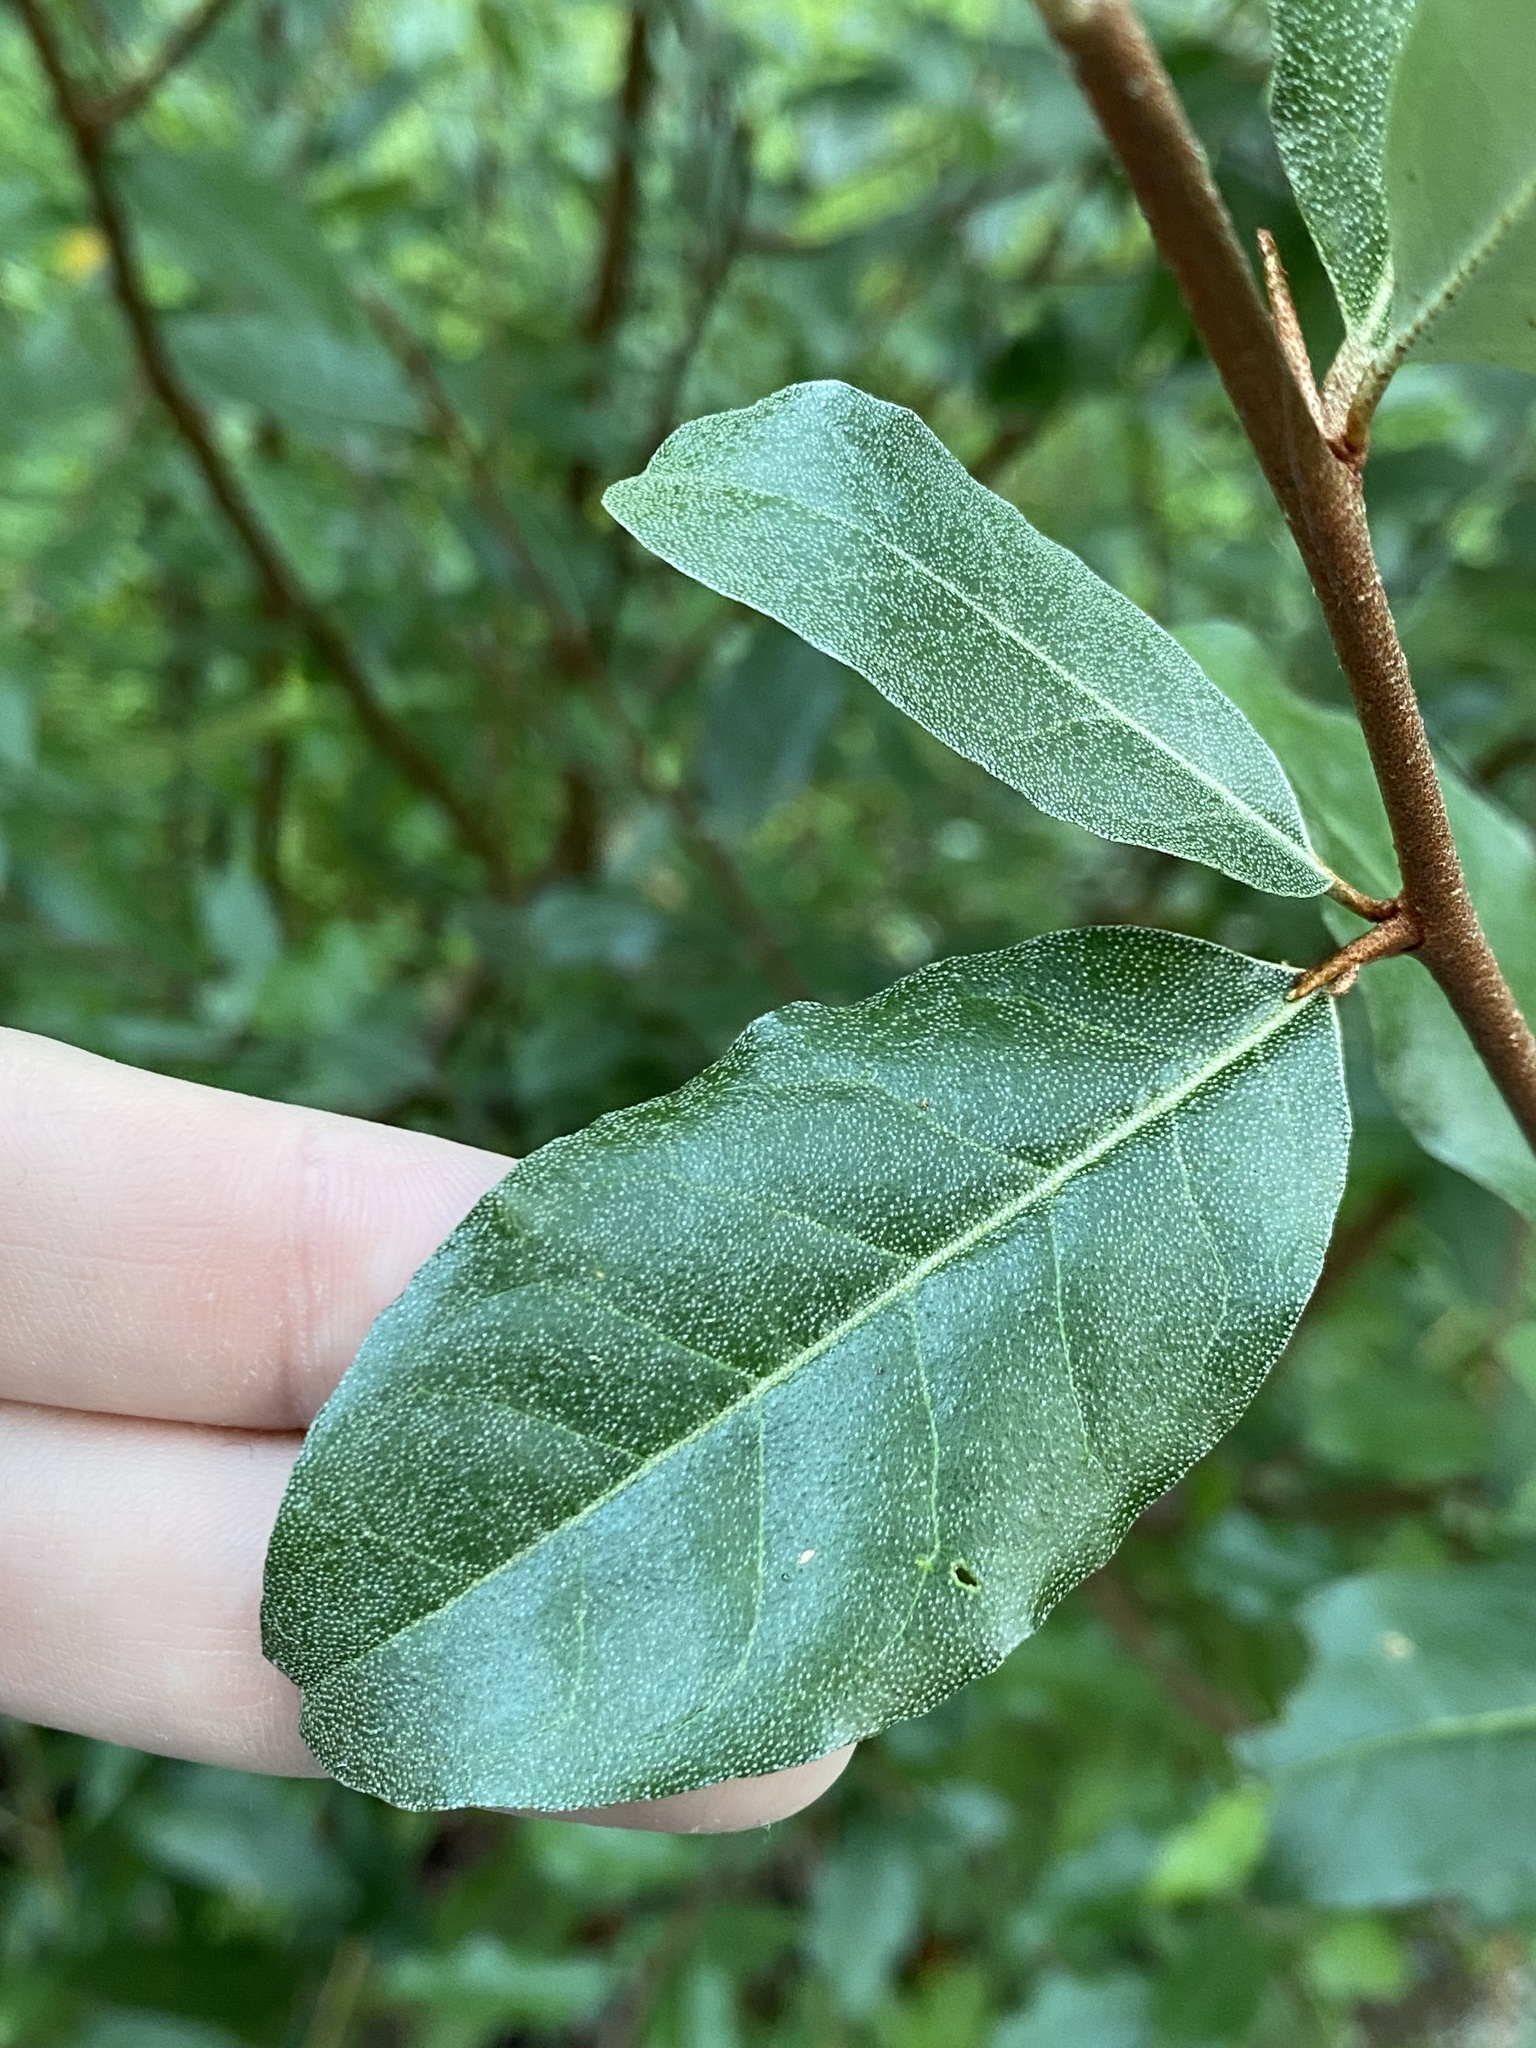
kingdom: Plantae
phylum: Tracheophyta
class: Magnoliopsida
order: Rosales
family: Elaeagnaceae
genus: Elaeagnus
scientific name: Elaeagnus umbellata
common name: Autumn olive
